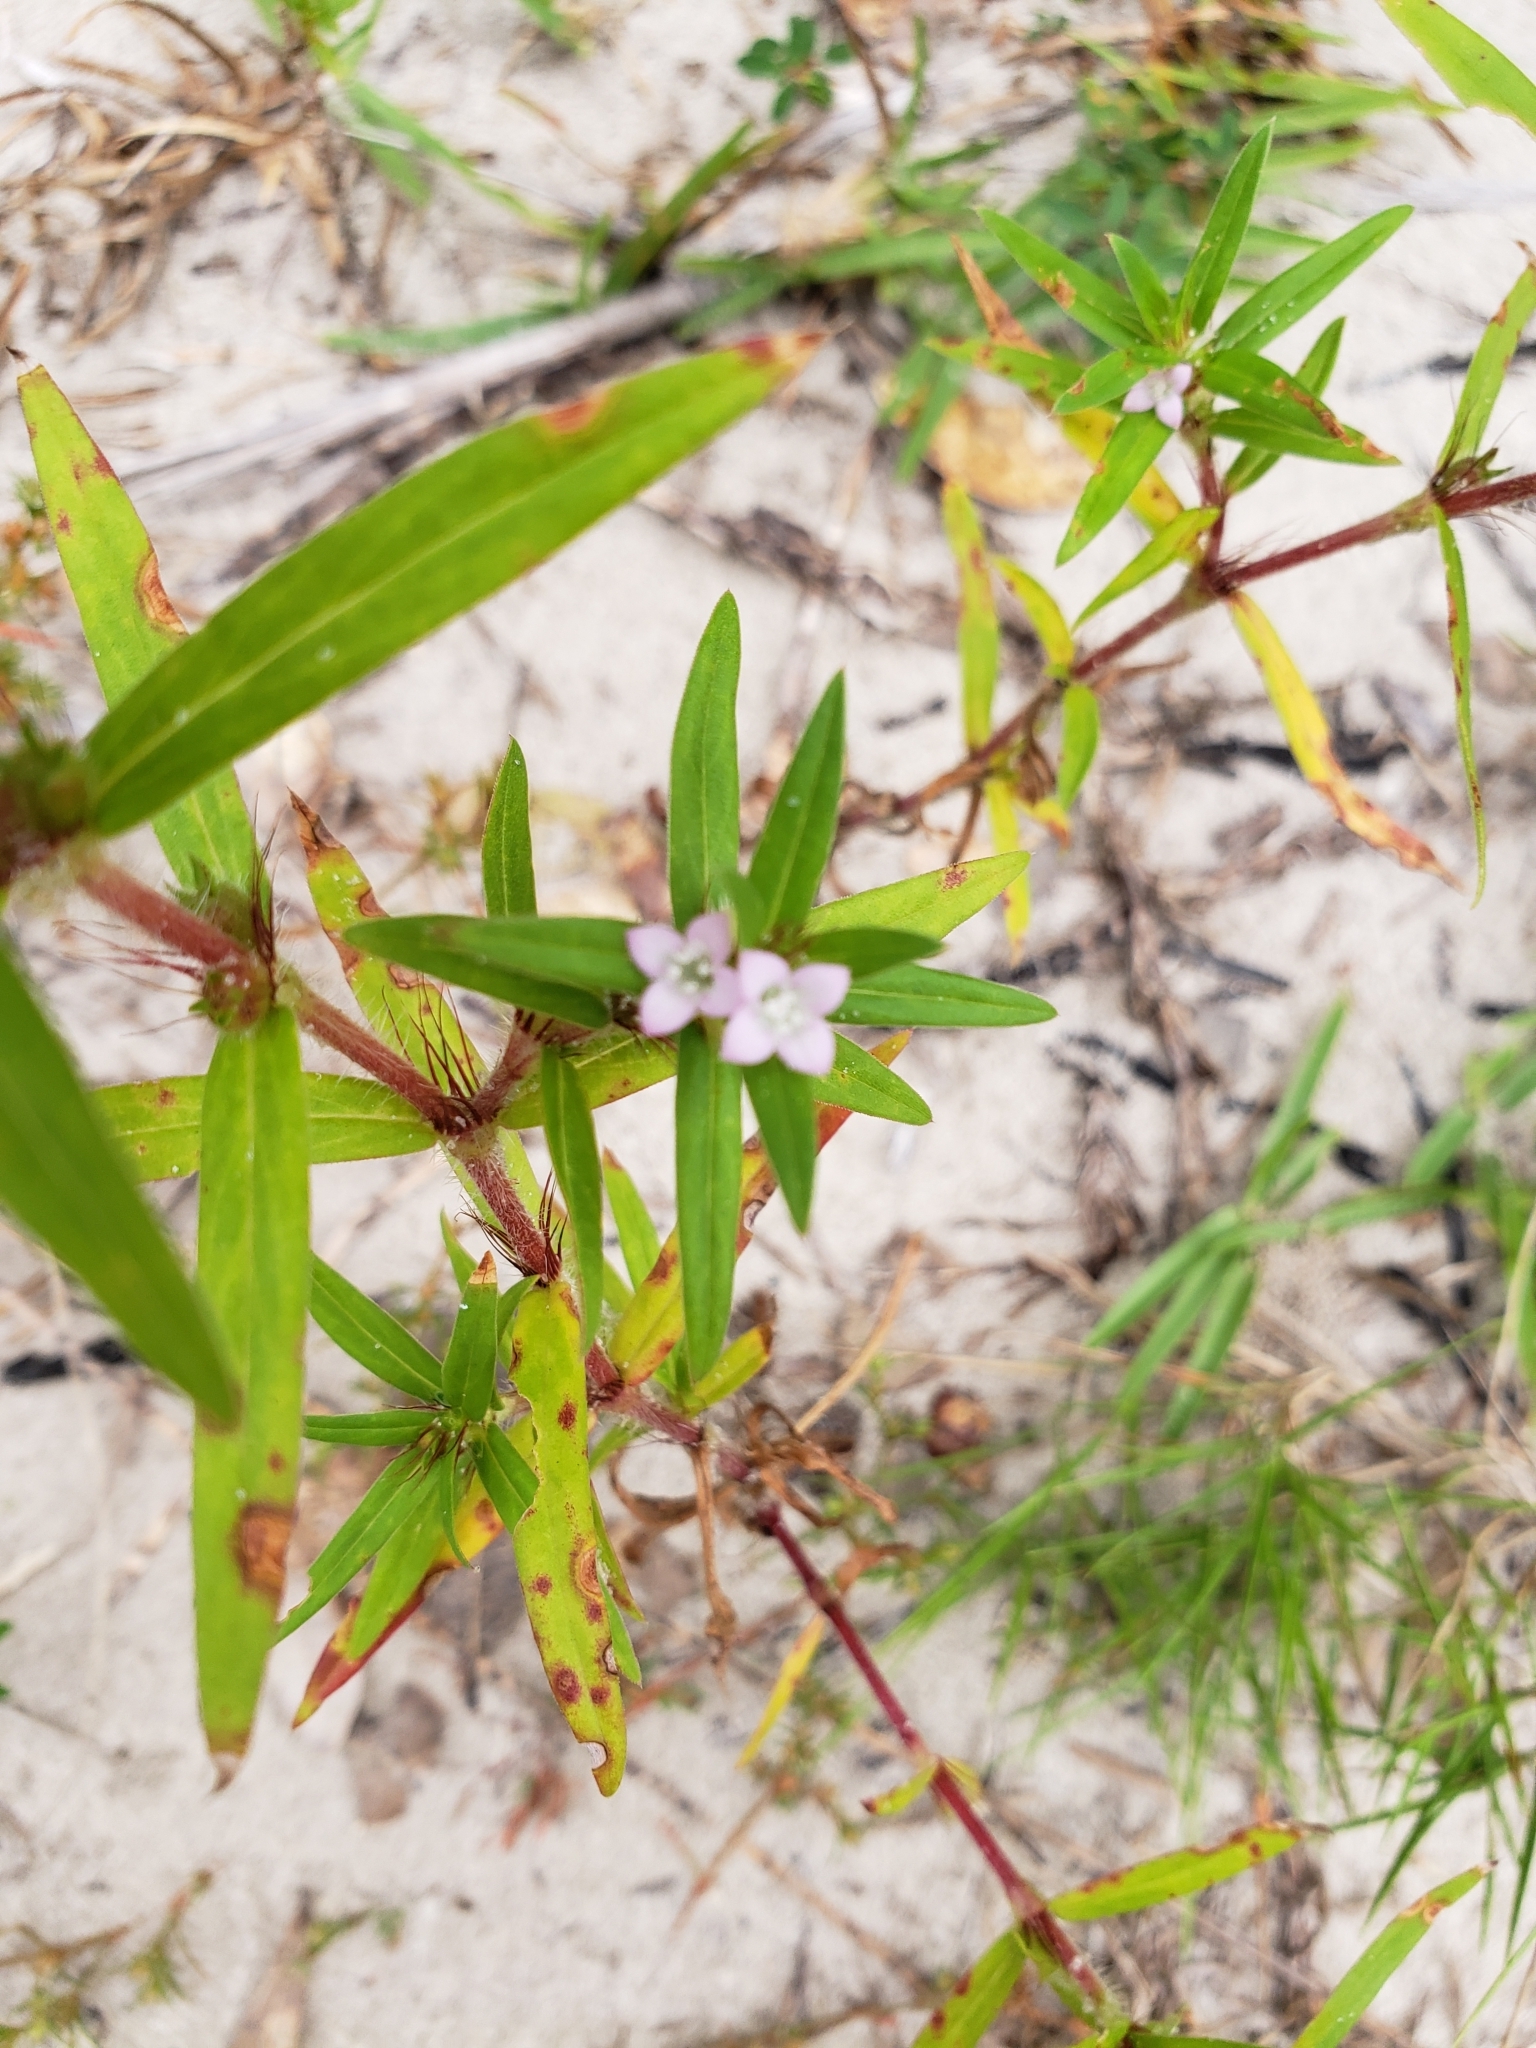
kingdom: Plantae
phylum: Tracheophyta
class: Magnoliopsida
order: Gentianales
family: Rubiaceae
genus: Hexasepalum
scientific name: Hexasepalum teres
